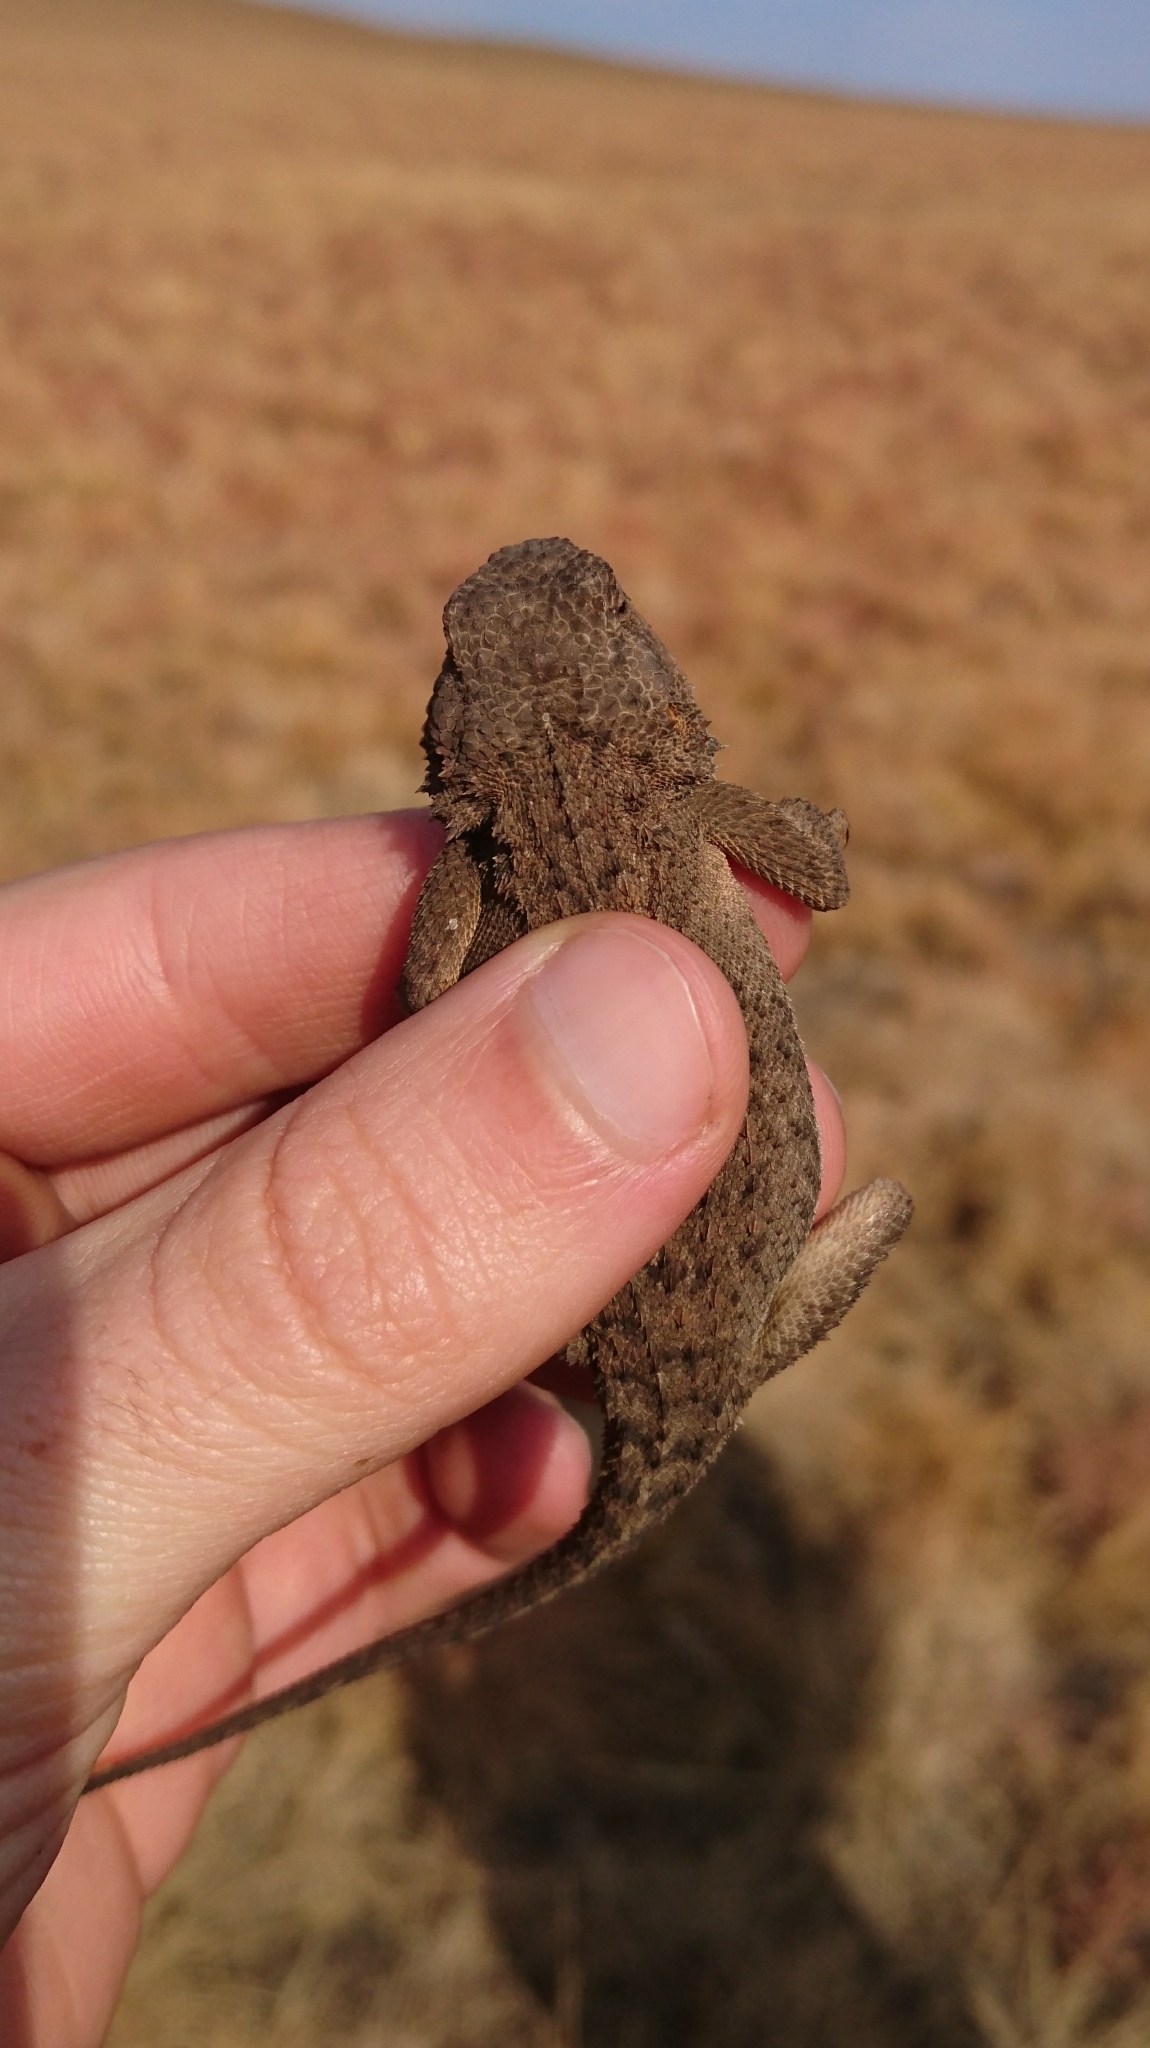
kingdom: Animalia
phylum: Chordata
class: Squamata
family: Agamidae
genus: Agama
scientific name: Agama aculeata
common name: Common ground agama
